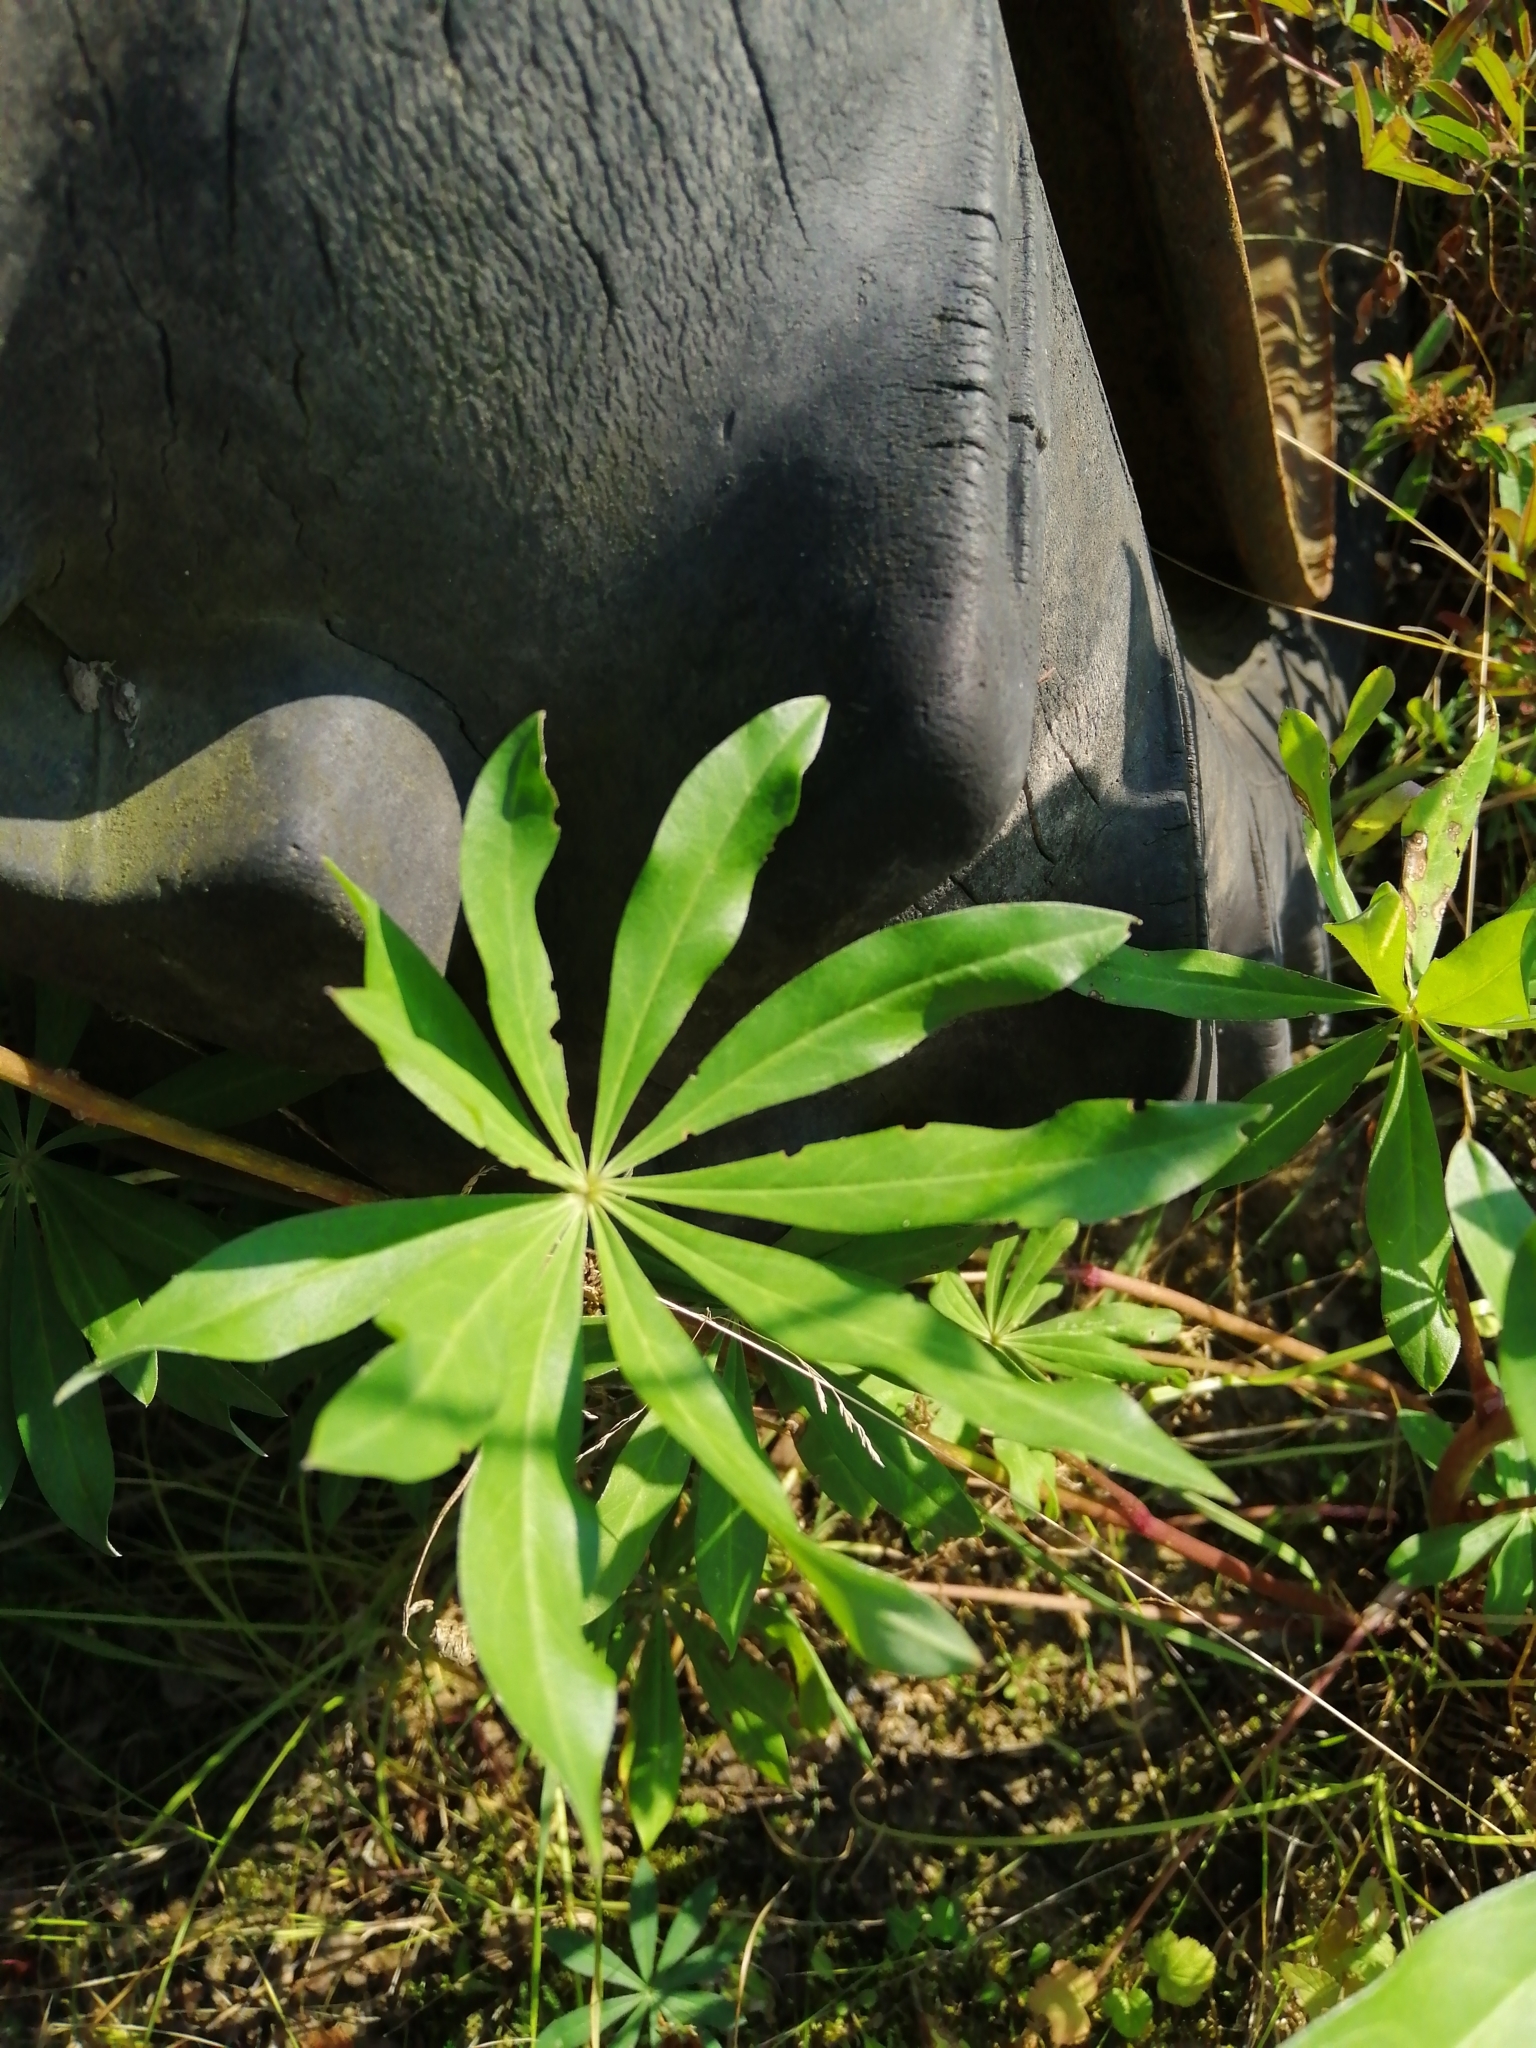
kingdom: Plantae
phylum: Tracheophyta
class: Magnoliopsida
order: Fabales
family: Fabaceae
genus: Lupinus
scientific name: Lupinus polyphyllus
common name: Garden lupin
